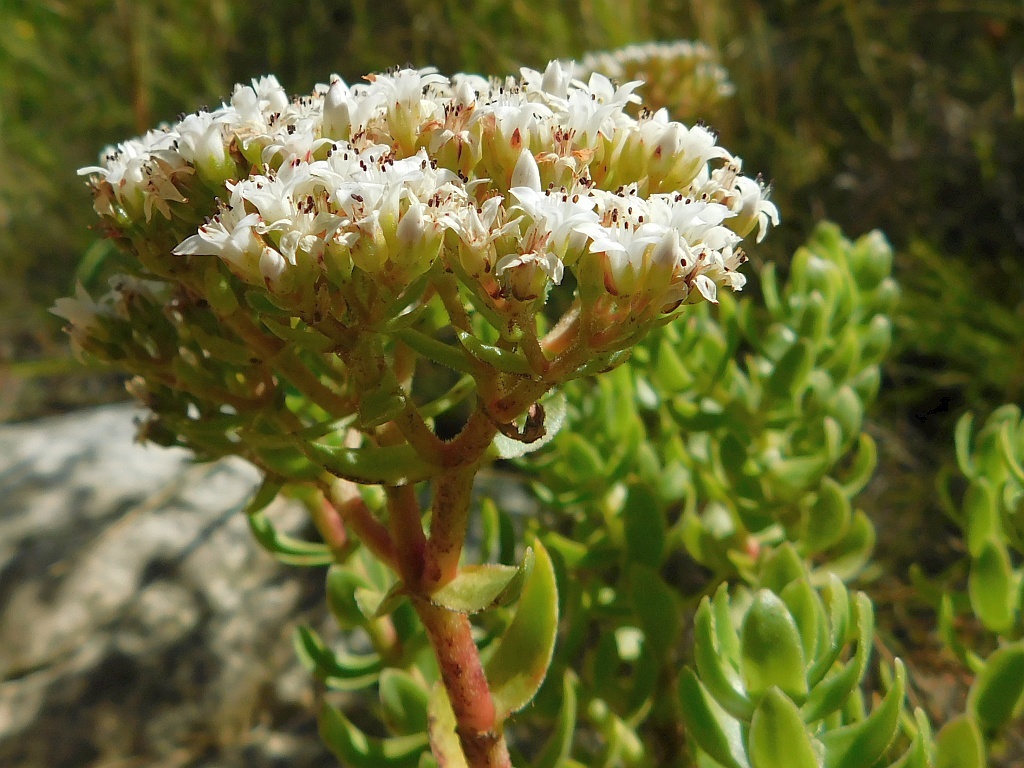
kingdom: Plantae
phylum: Tracheophyta
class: Magnoliopsida
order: Saxifragales
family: Crassulaceae
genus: Crassula
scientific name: Crassula undulata
